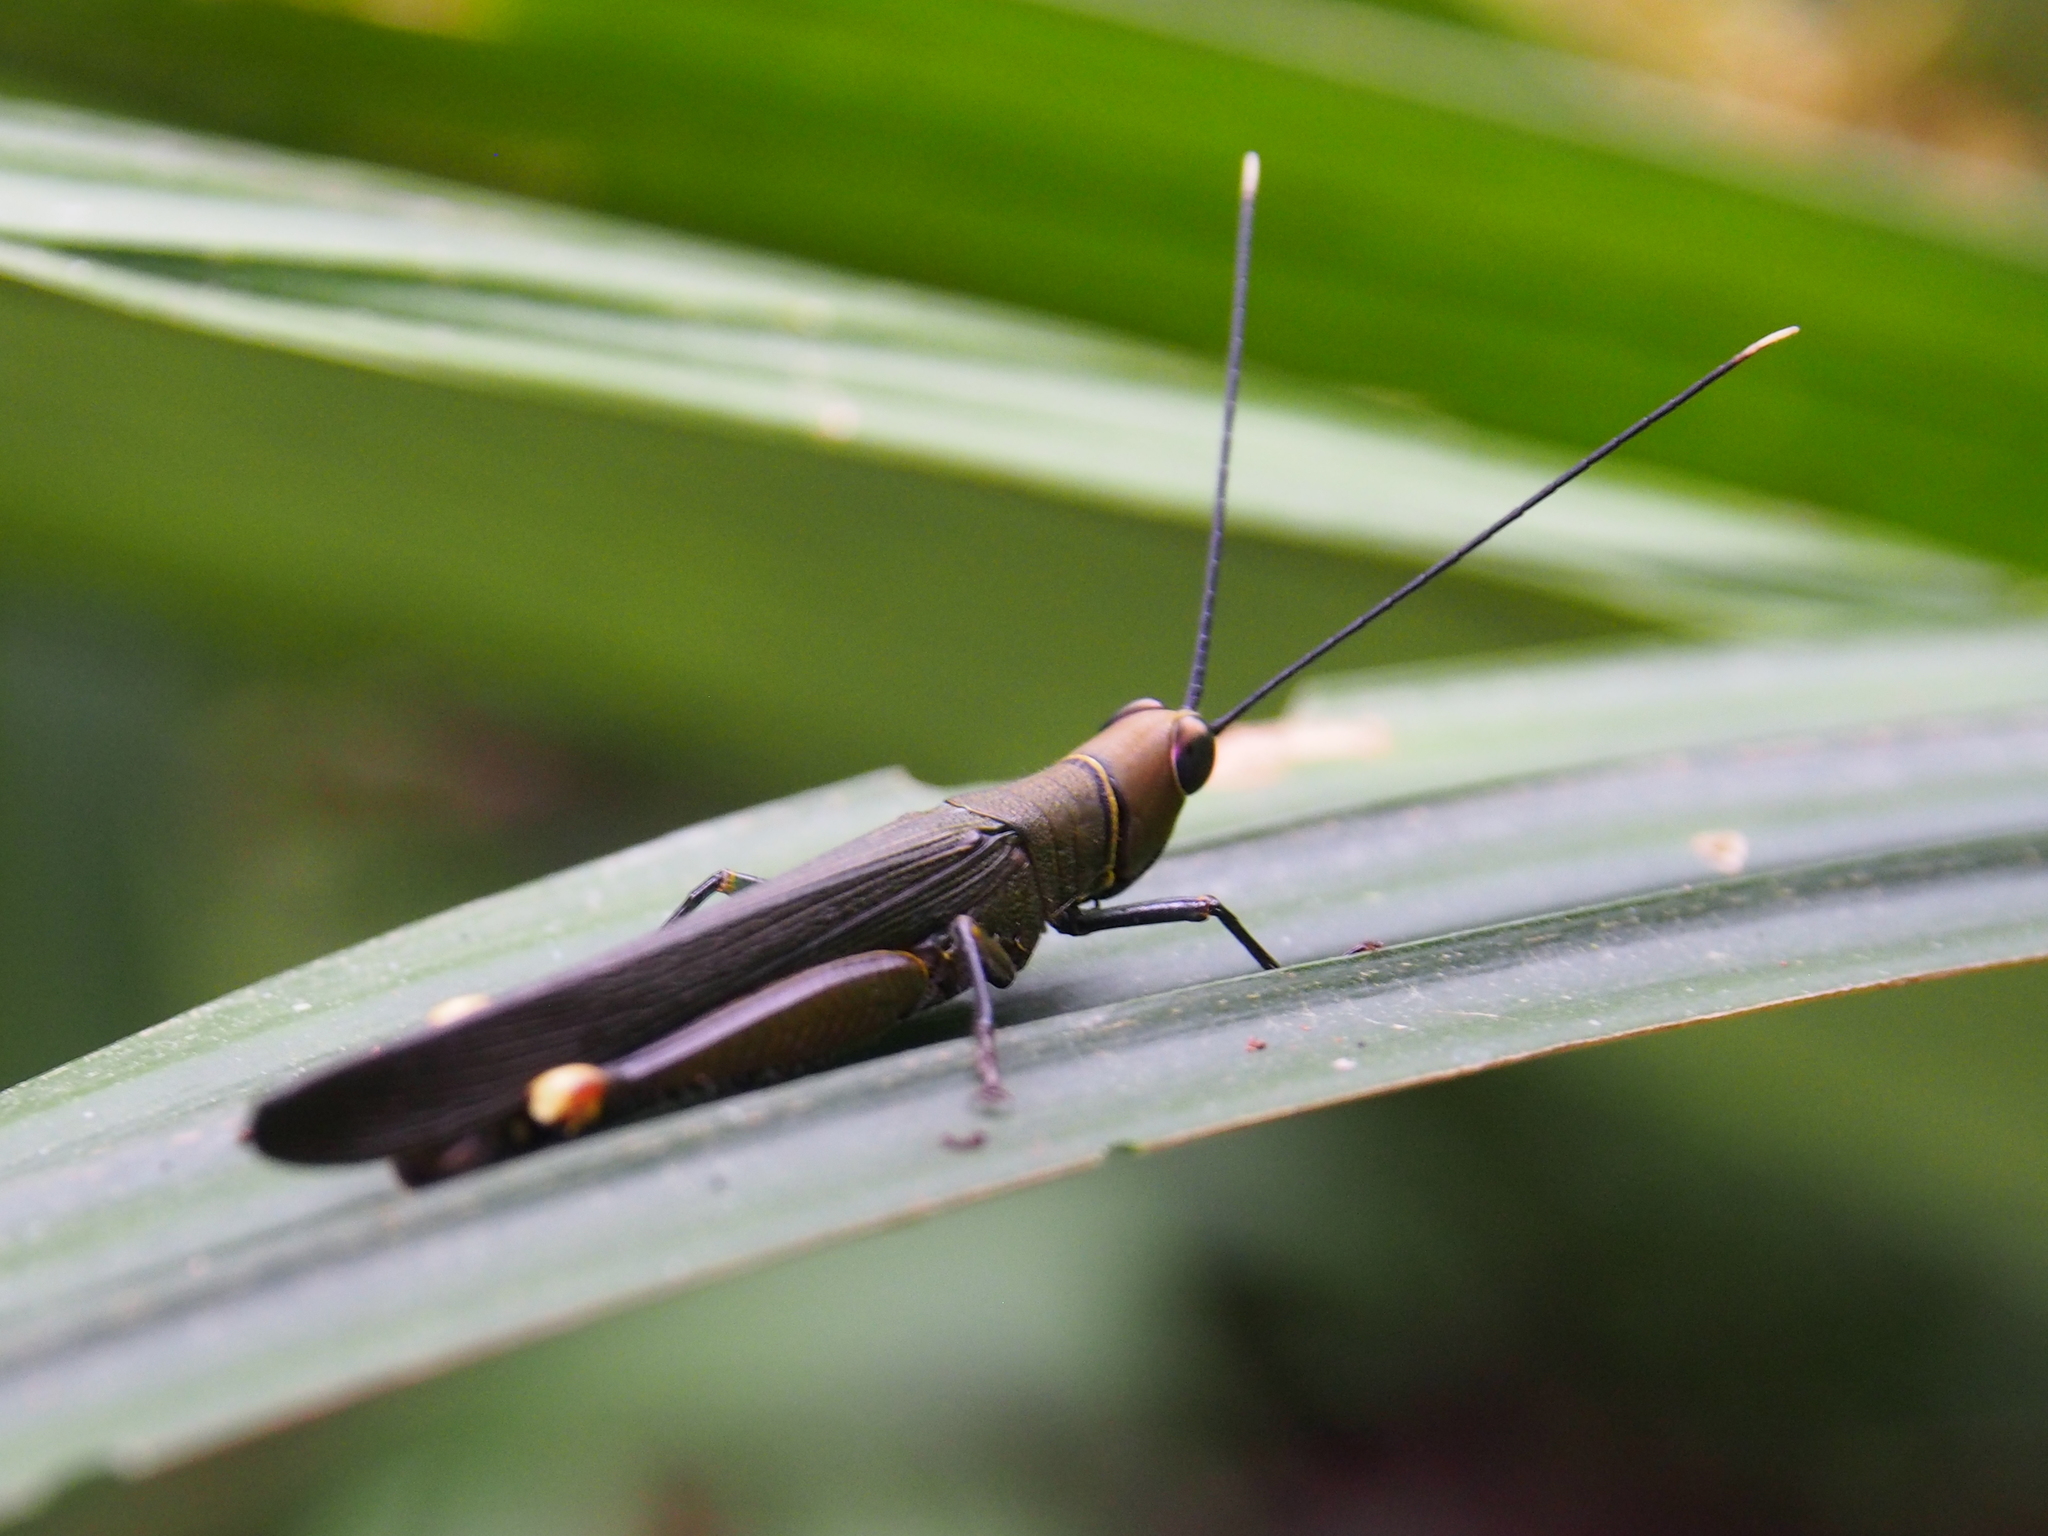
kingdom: Animalia
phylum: Arthropoda
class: Insecta
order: Orthoptera
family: Acrididae
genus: Copiocera
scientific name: Copiocera specularis
